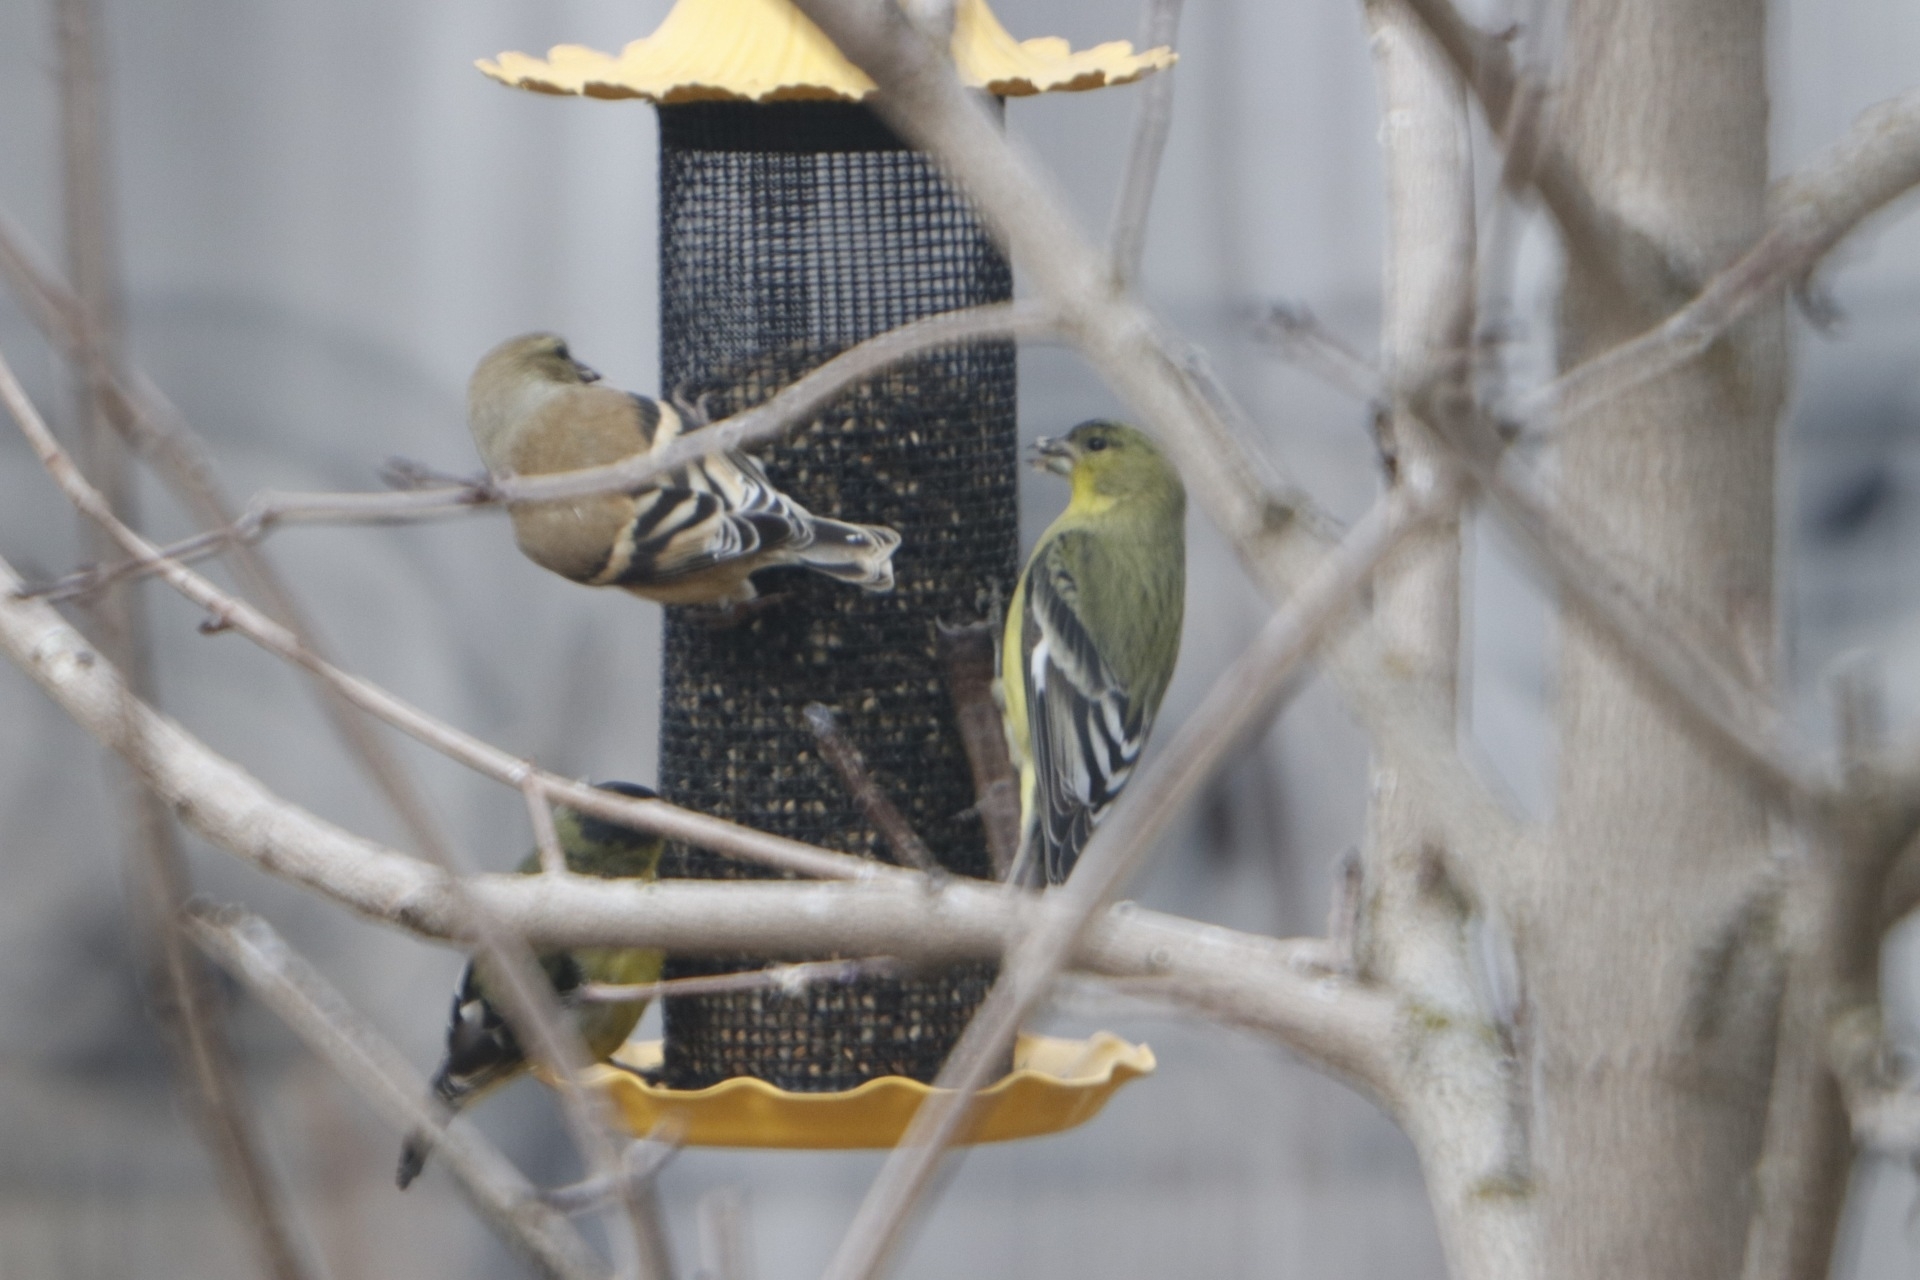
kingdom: Animalia
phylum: Chordata
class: Aves
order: Passeriformes
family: Fringillidae
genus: Spinus
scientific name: Spinus tristis
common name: American goldfinch
